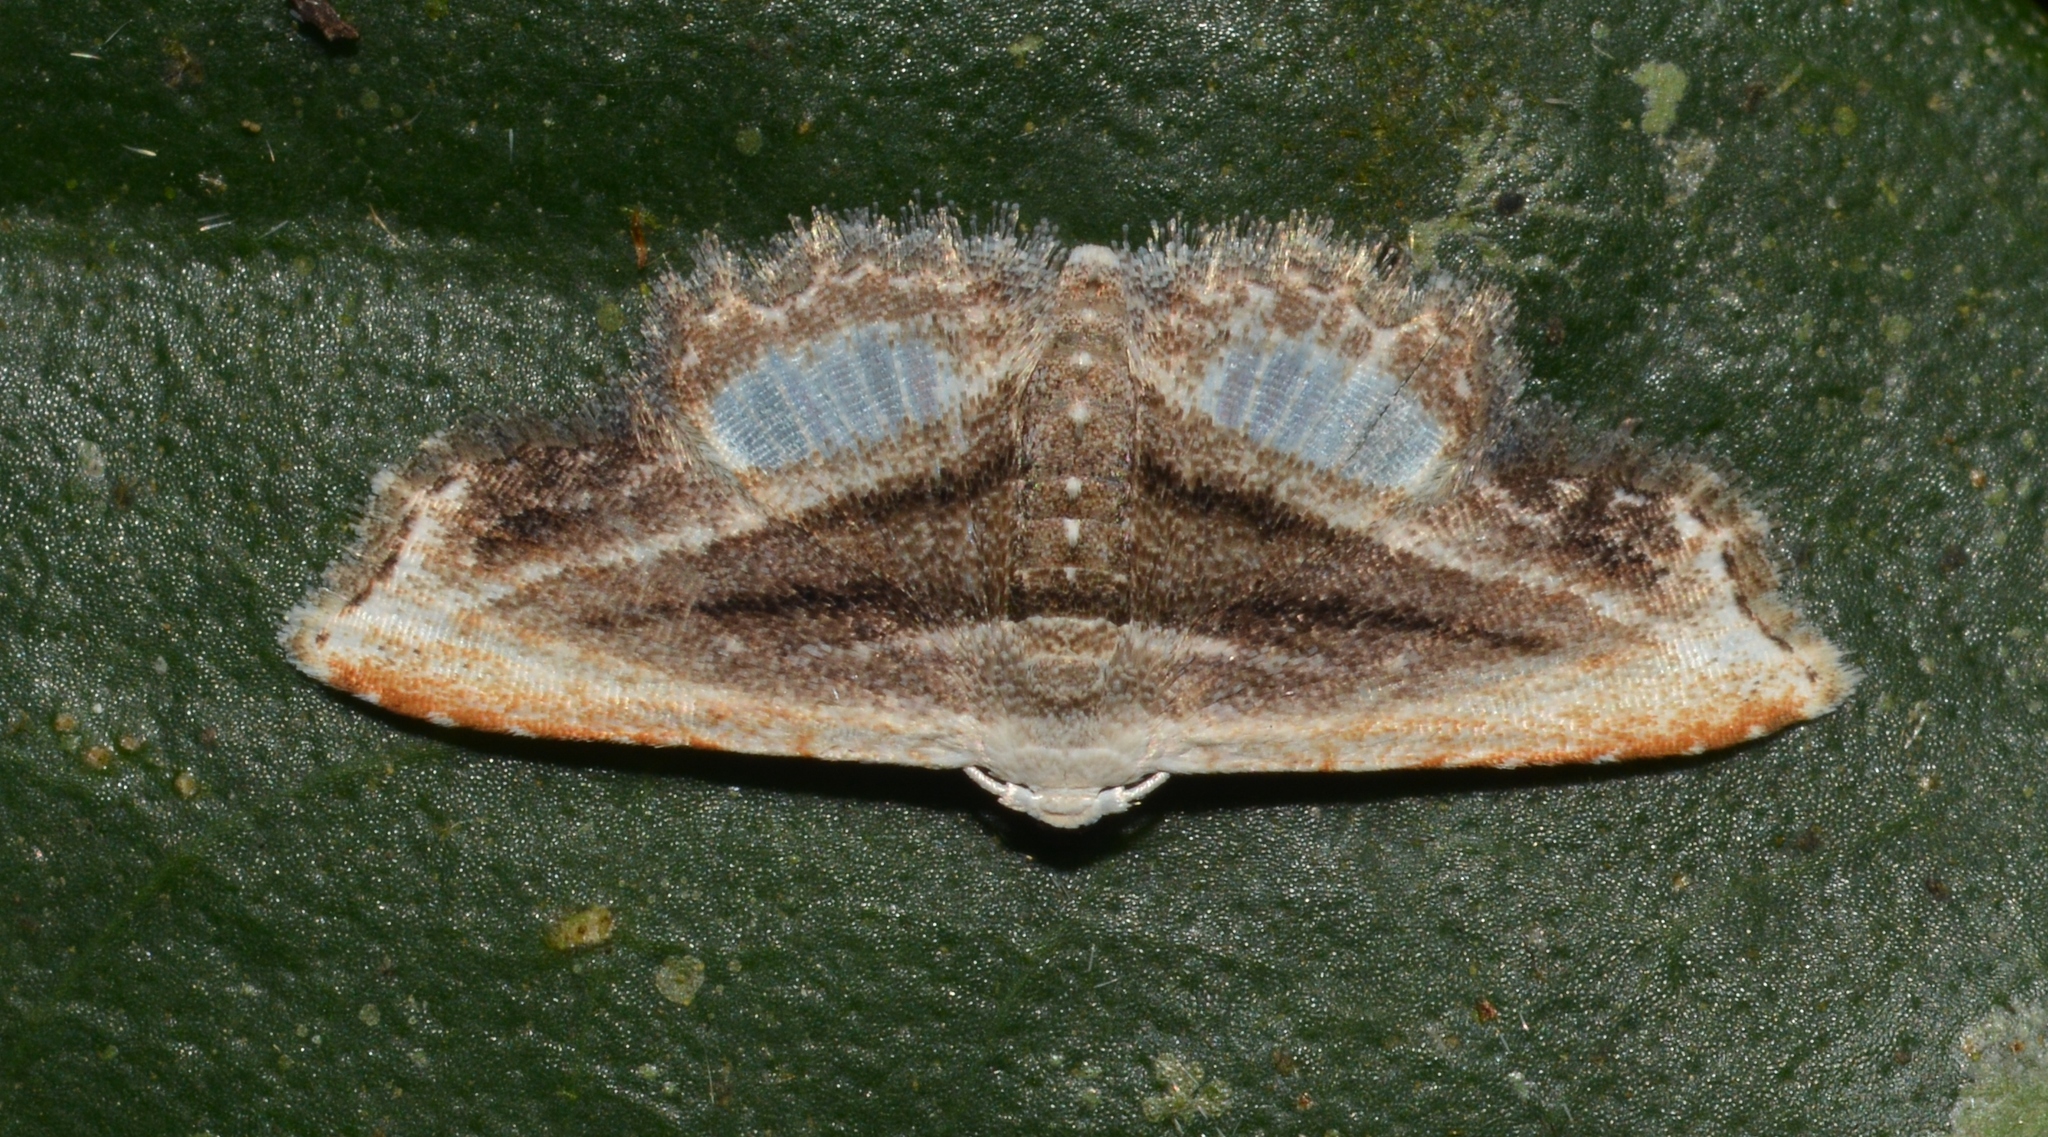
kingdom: Animalia
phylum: Arthropoda
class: Insecta
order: Lepidoptera
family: Erebidae
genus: Sigela
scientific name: Sigela leucozona
